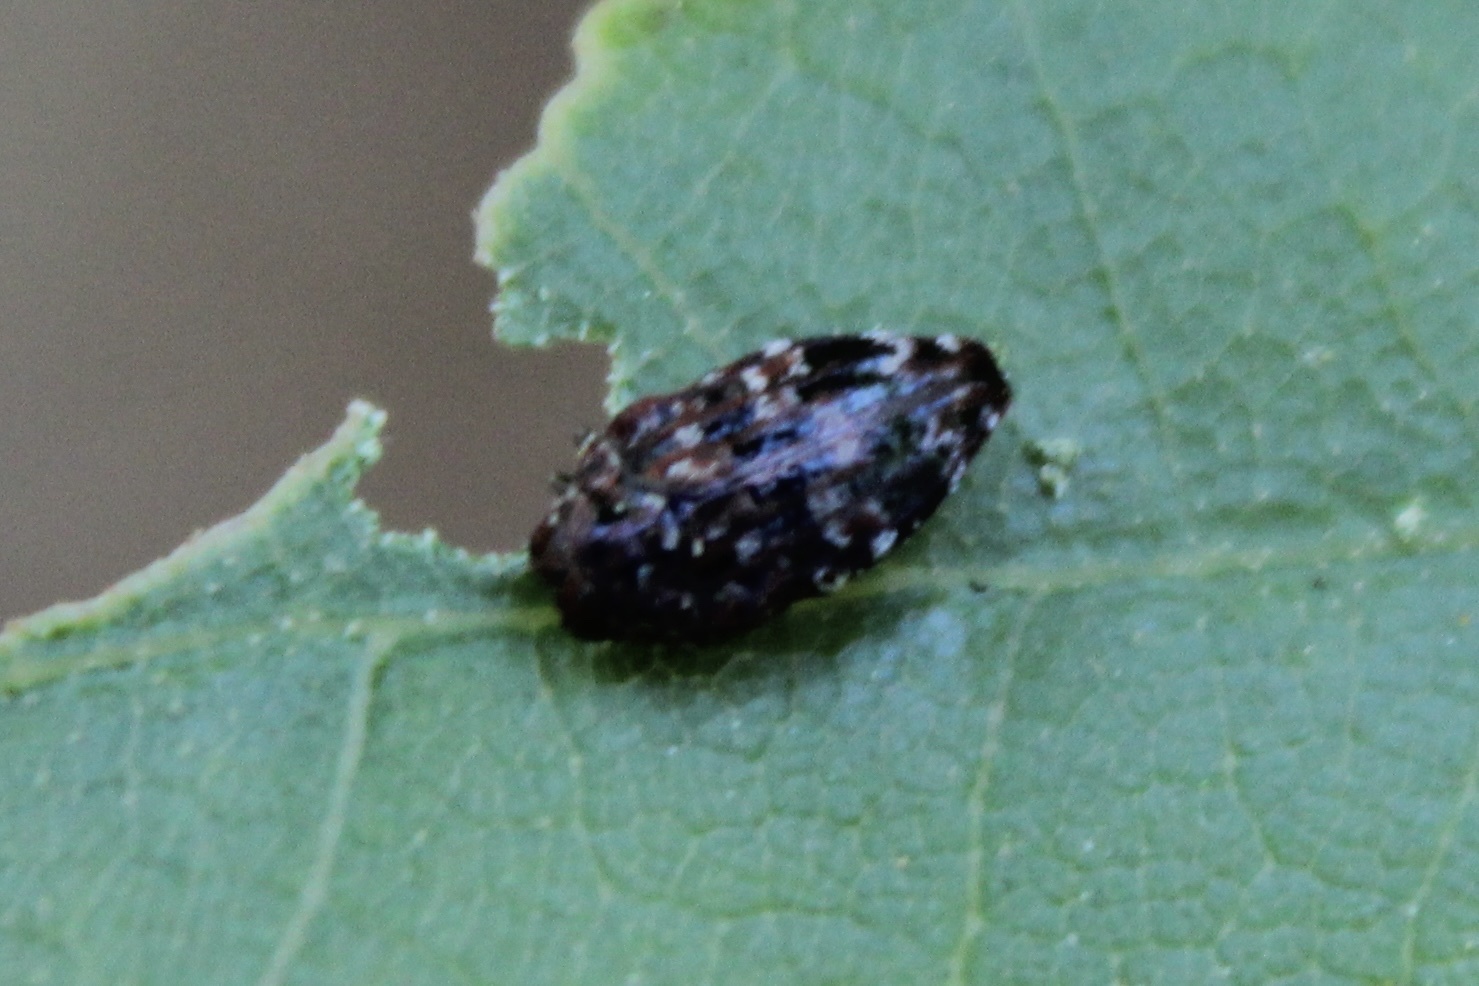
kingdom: Animalia
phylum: Arthropoda
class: Insecta
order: Coleoptera
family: Buprestidae
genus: Brachys
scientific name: Brachys ovatus
